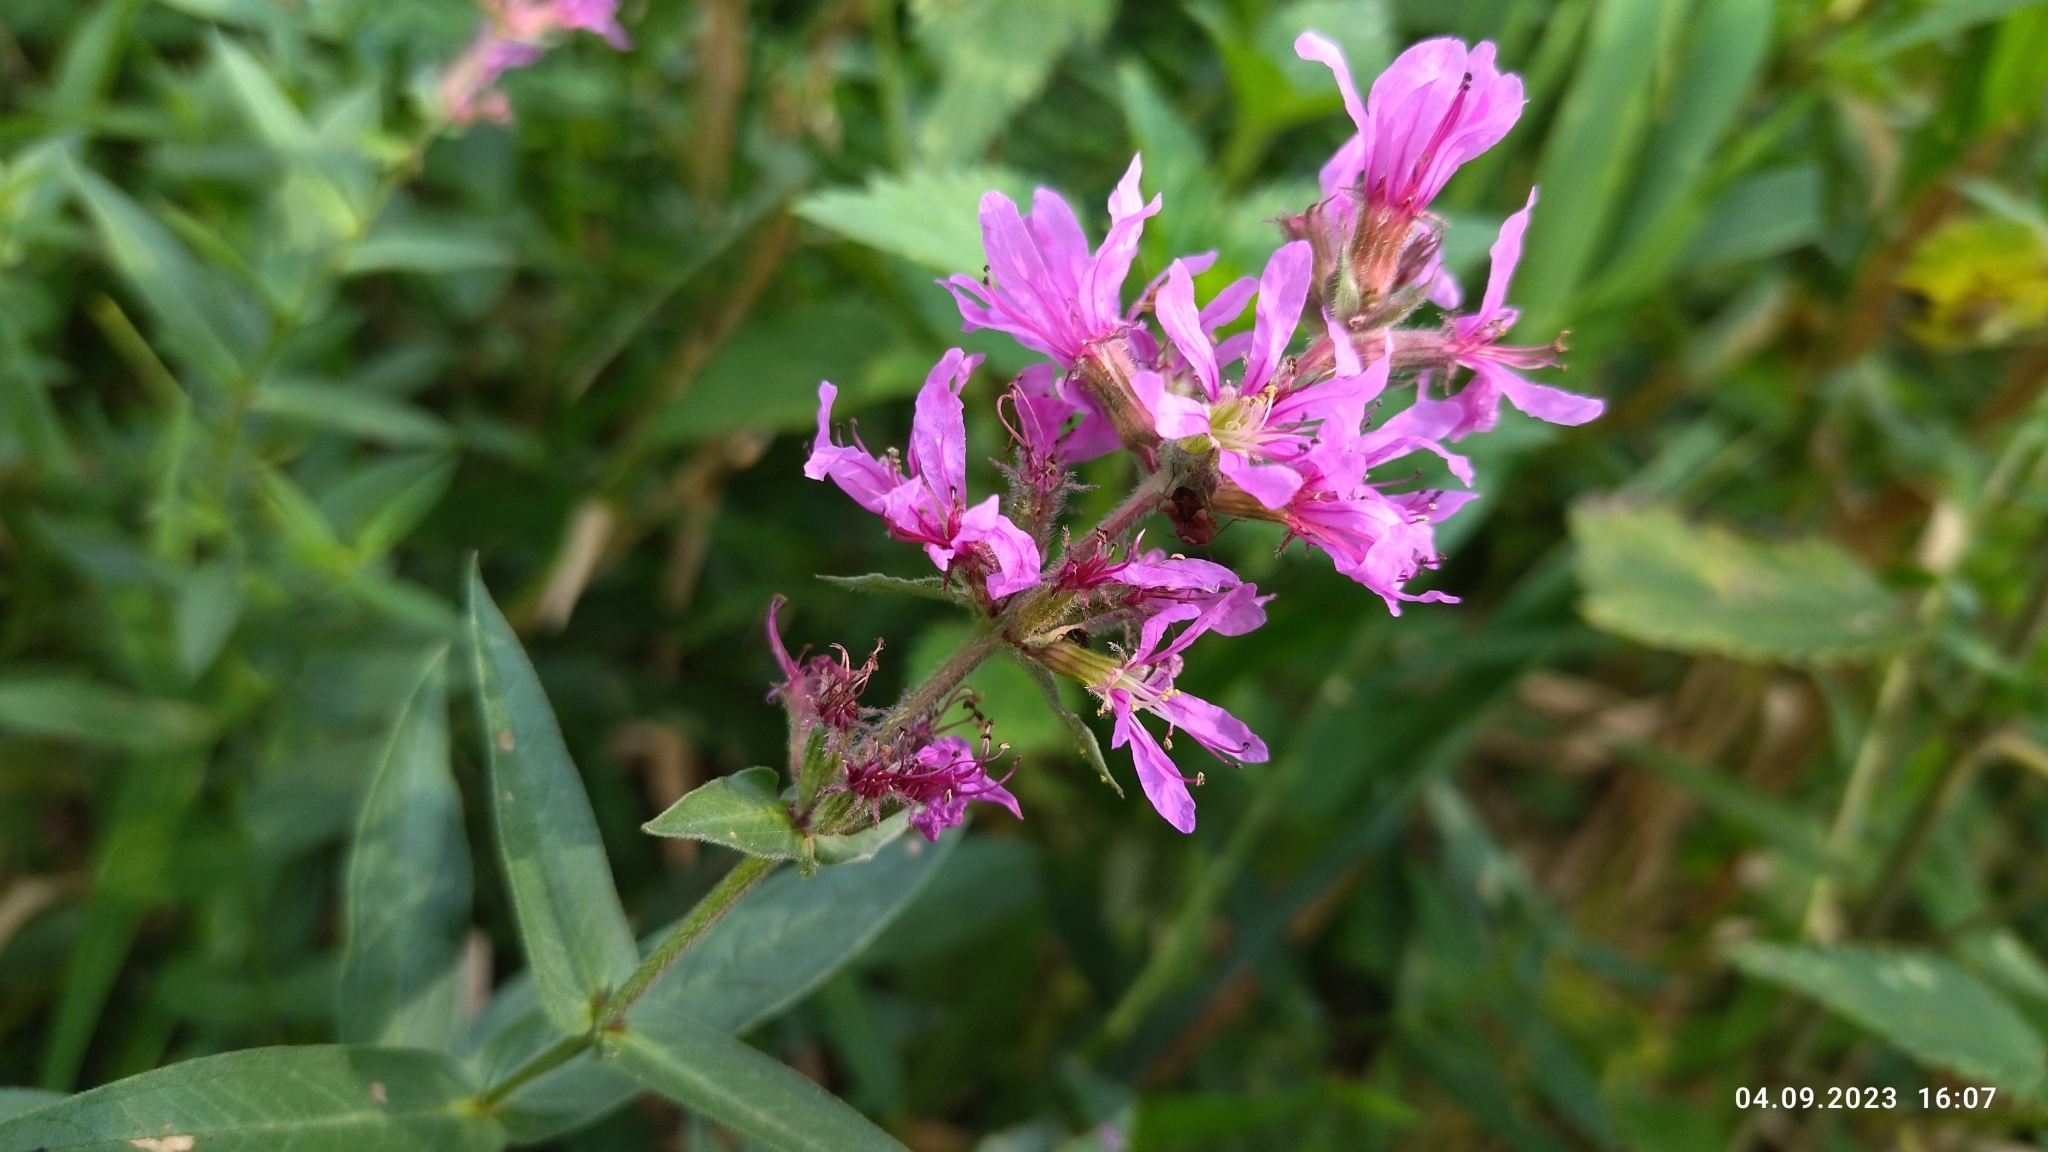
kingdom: Plantae
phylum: Tracheophyta
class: Magnoliopsida
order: Myrtales
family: Lythraceae
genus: Lythrum
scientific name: Lythrum salicaria
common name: Purple loosestrife
